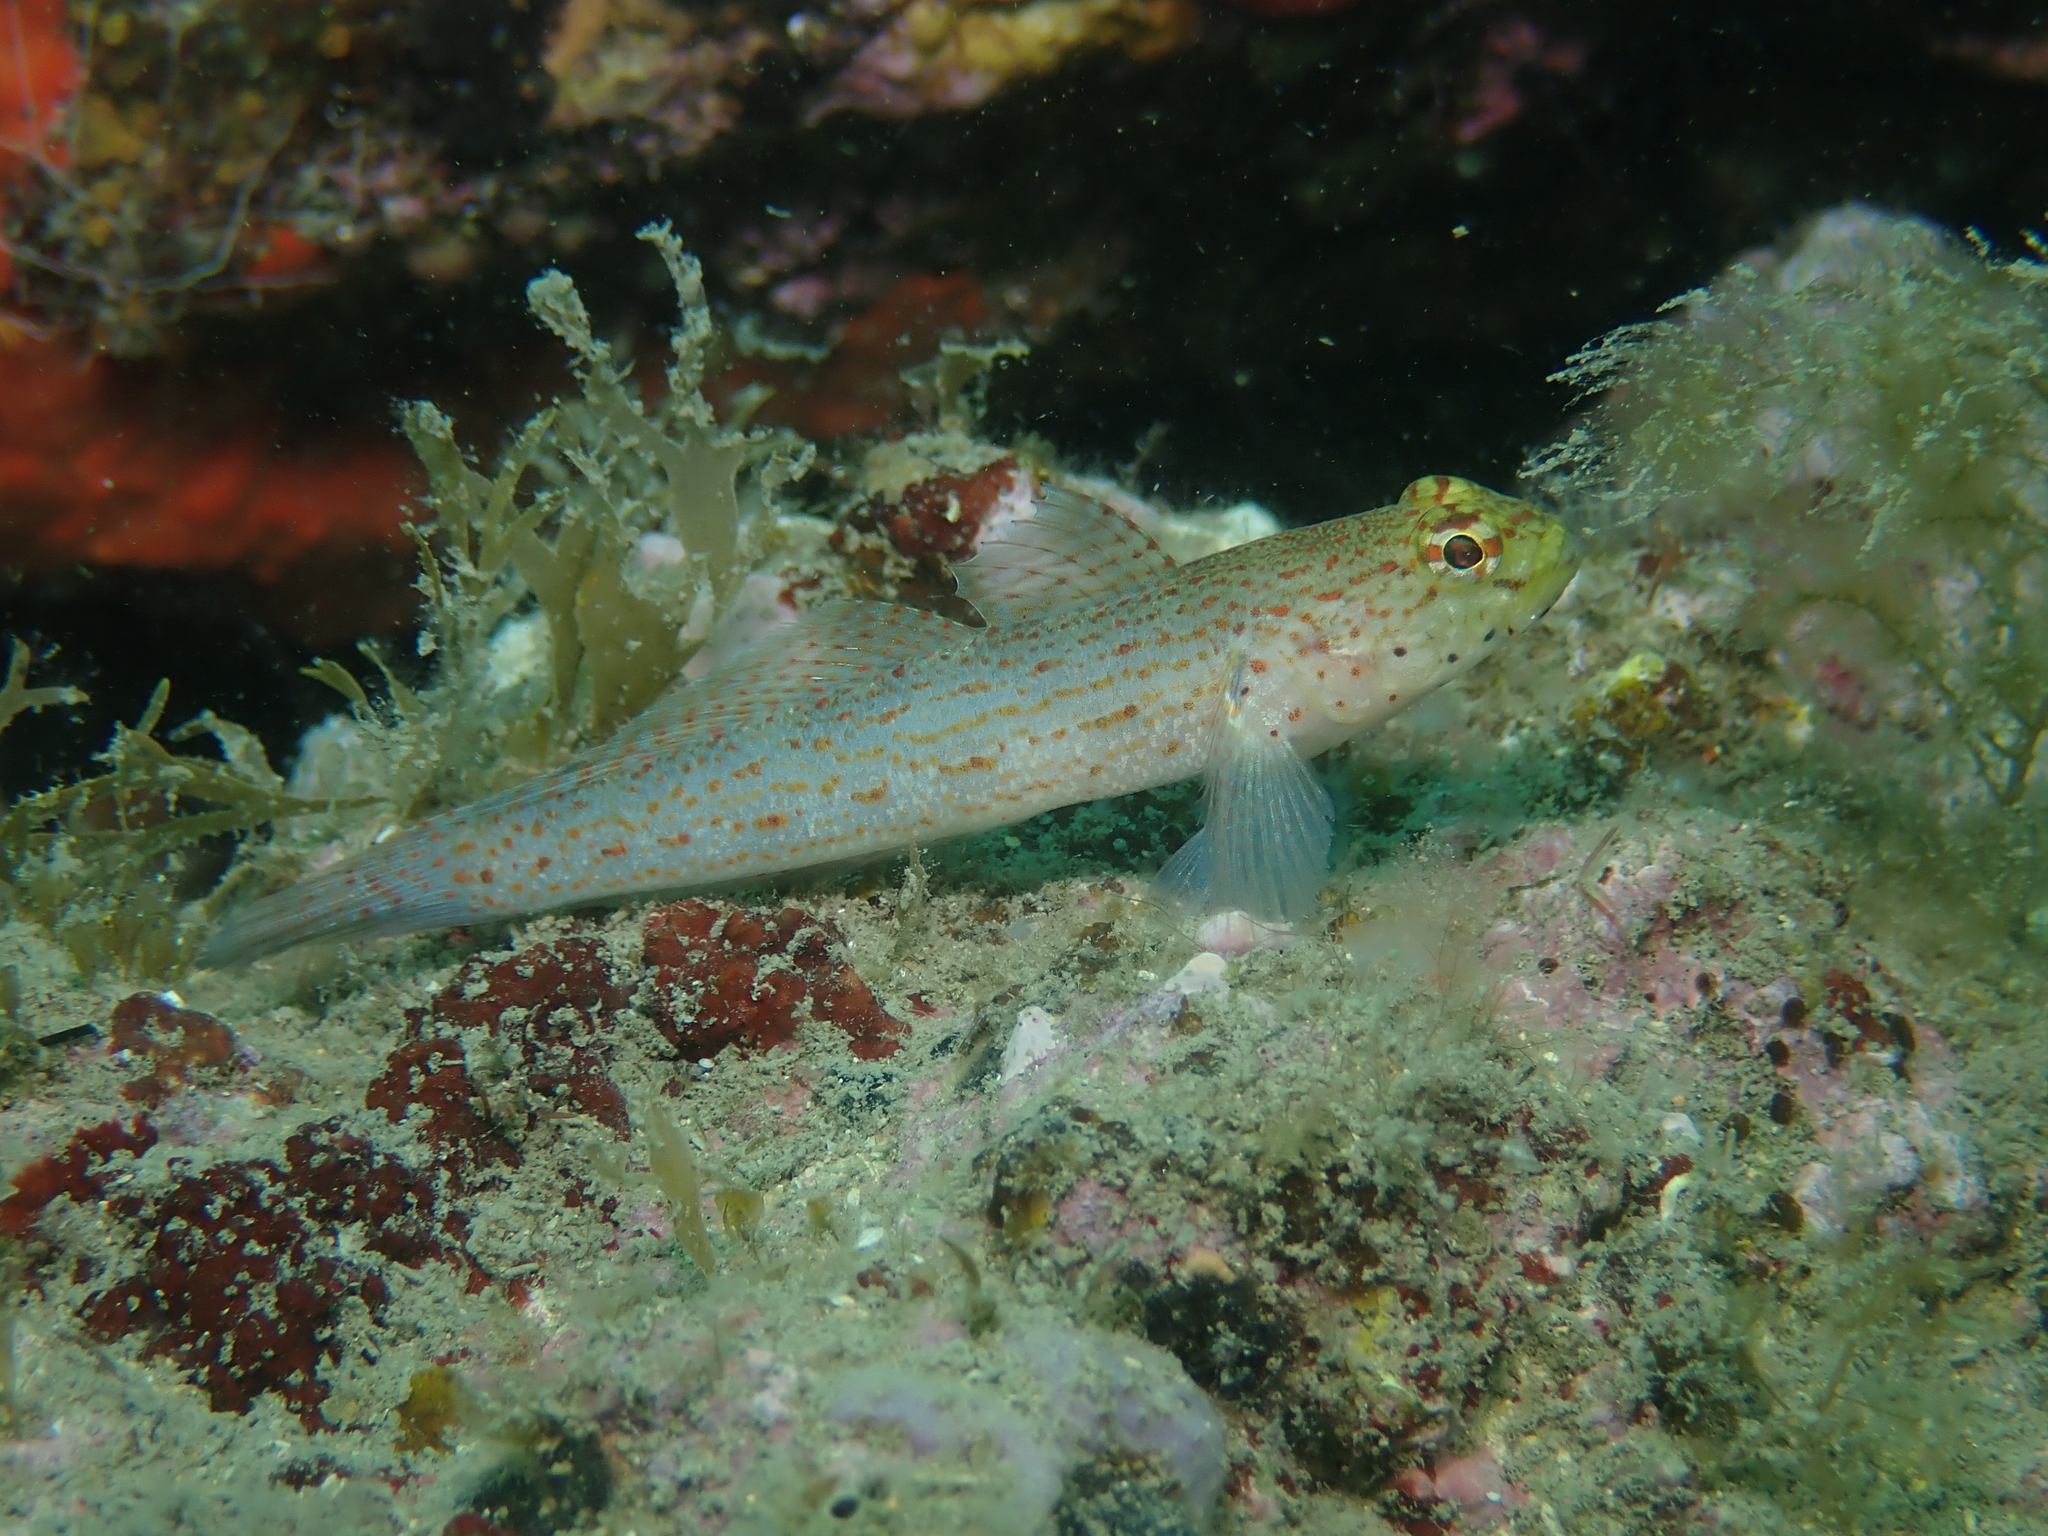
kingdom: Animalia
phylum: Chordata
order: Perciformes
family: Gobiidae
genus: Gobius
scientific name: Gobius xanthocephalus
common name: Golden goby
